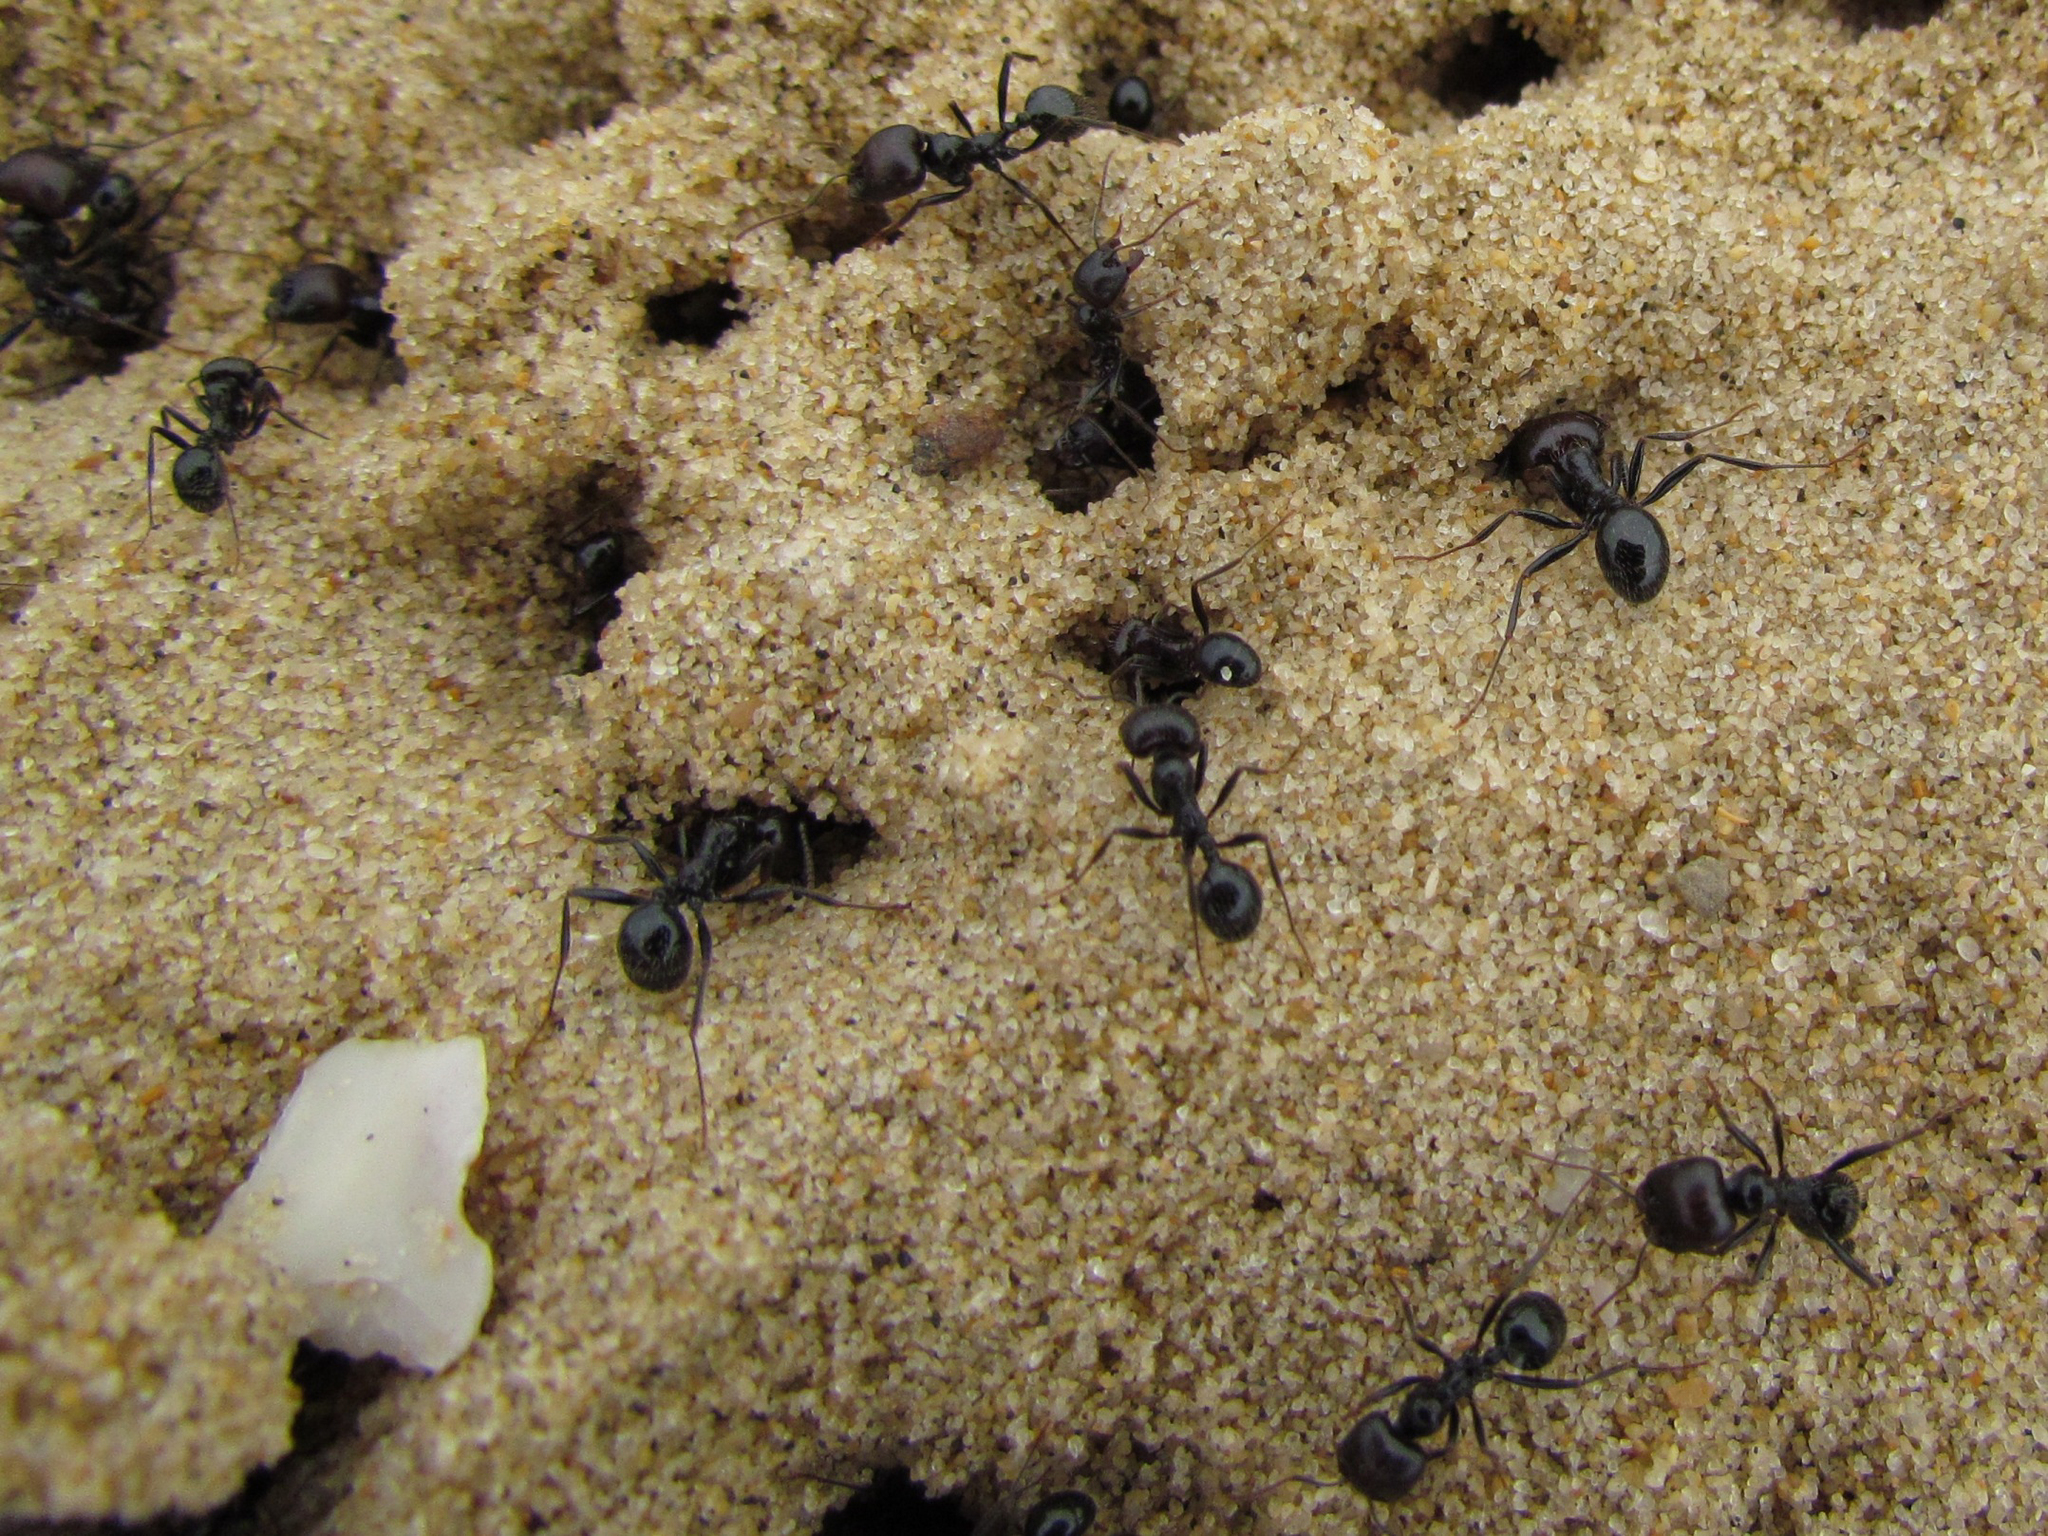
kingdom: Animalia
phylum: Arthropoda
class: Insecta
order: Hymenoptera
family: Formicidae
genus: Messor
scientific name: Messor barbarus
